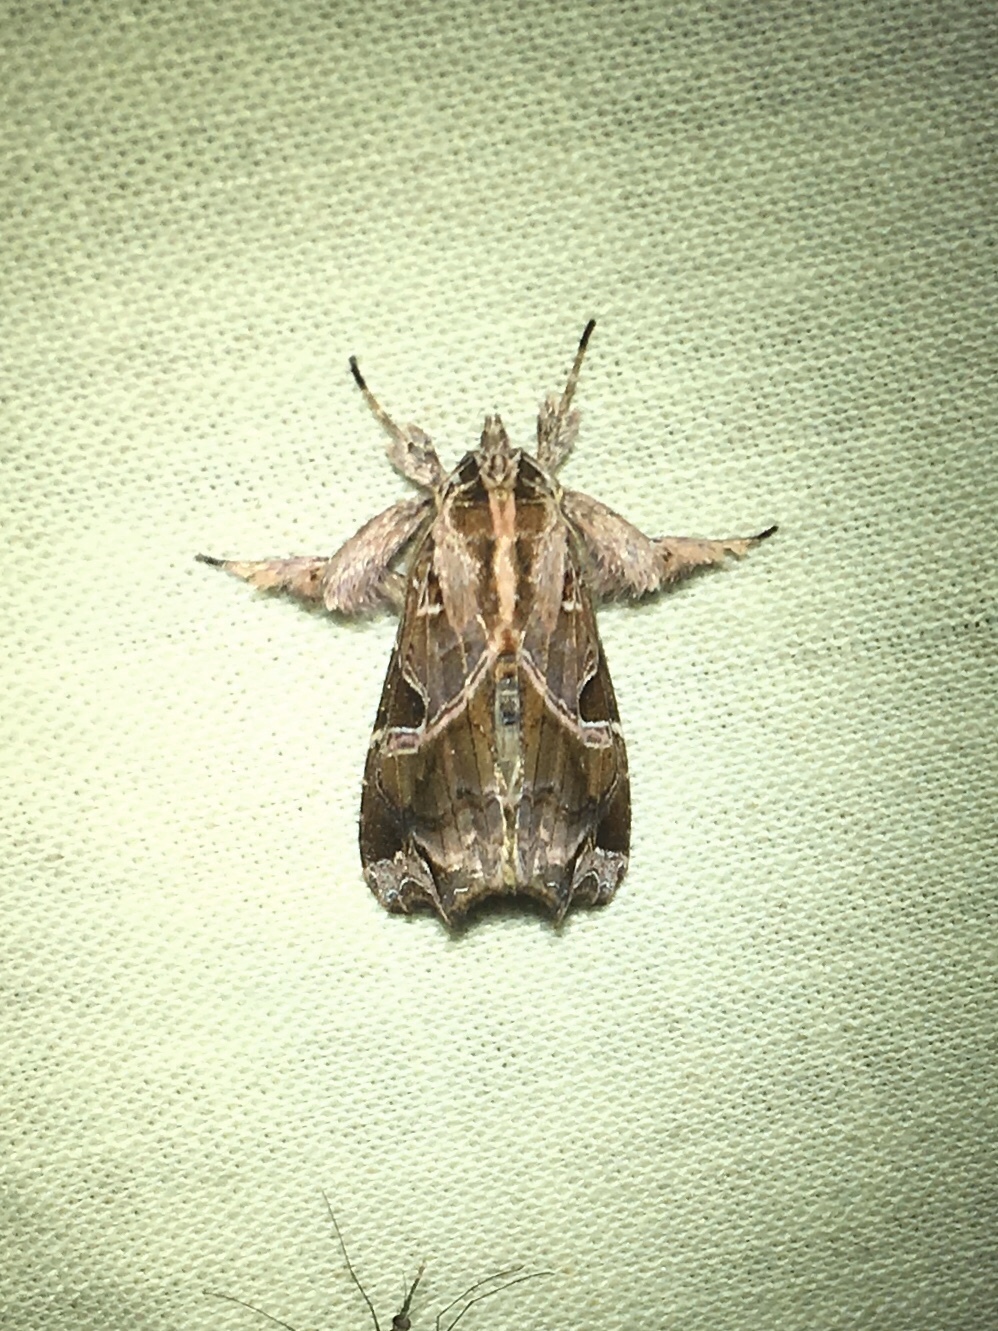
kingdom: Animalia
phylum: Arthropoda
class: Insecta
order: Lepidoptera
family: Noctuidae
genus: Callopistria
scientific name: Callopistria floridensis
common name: Florida fern moth
